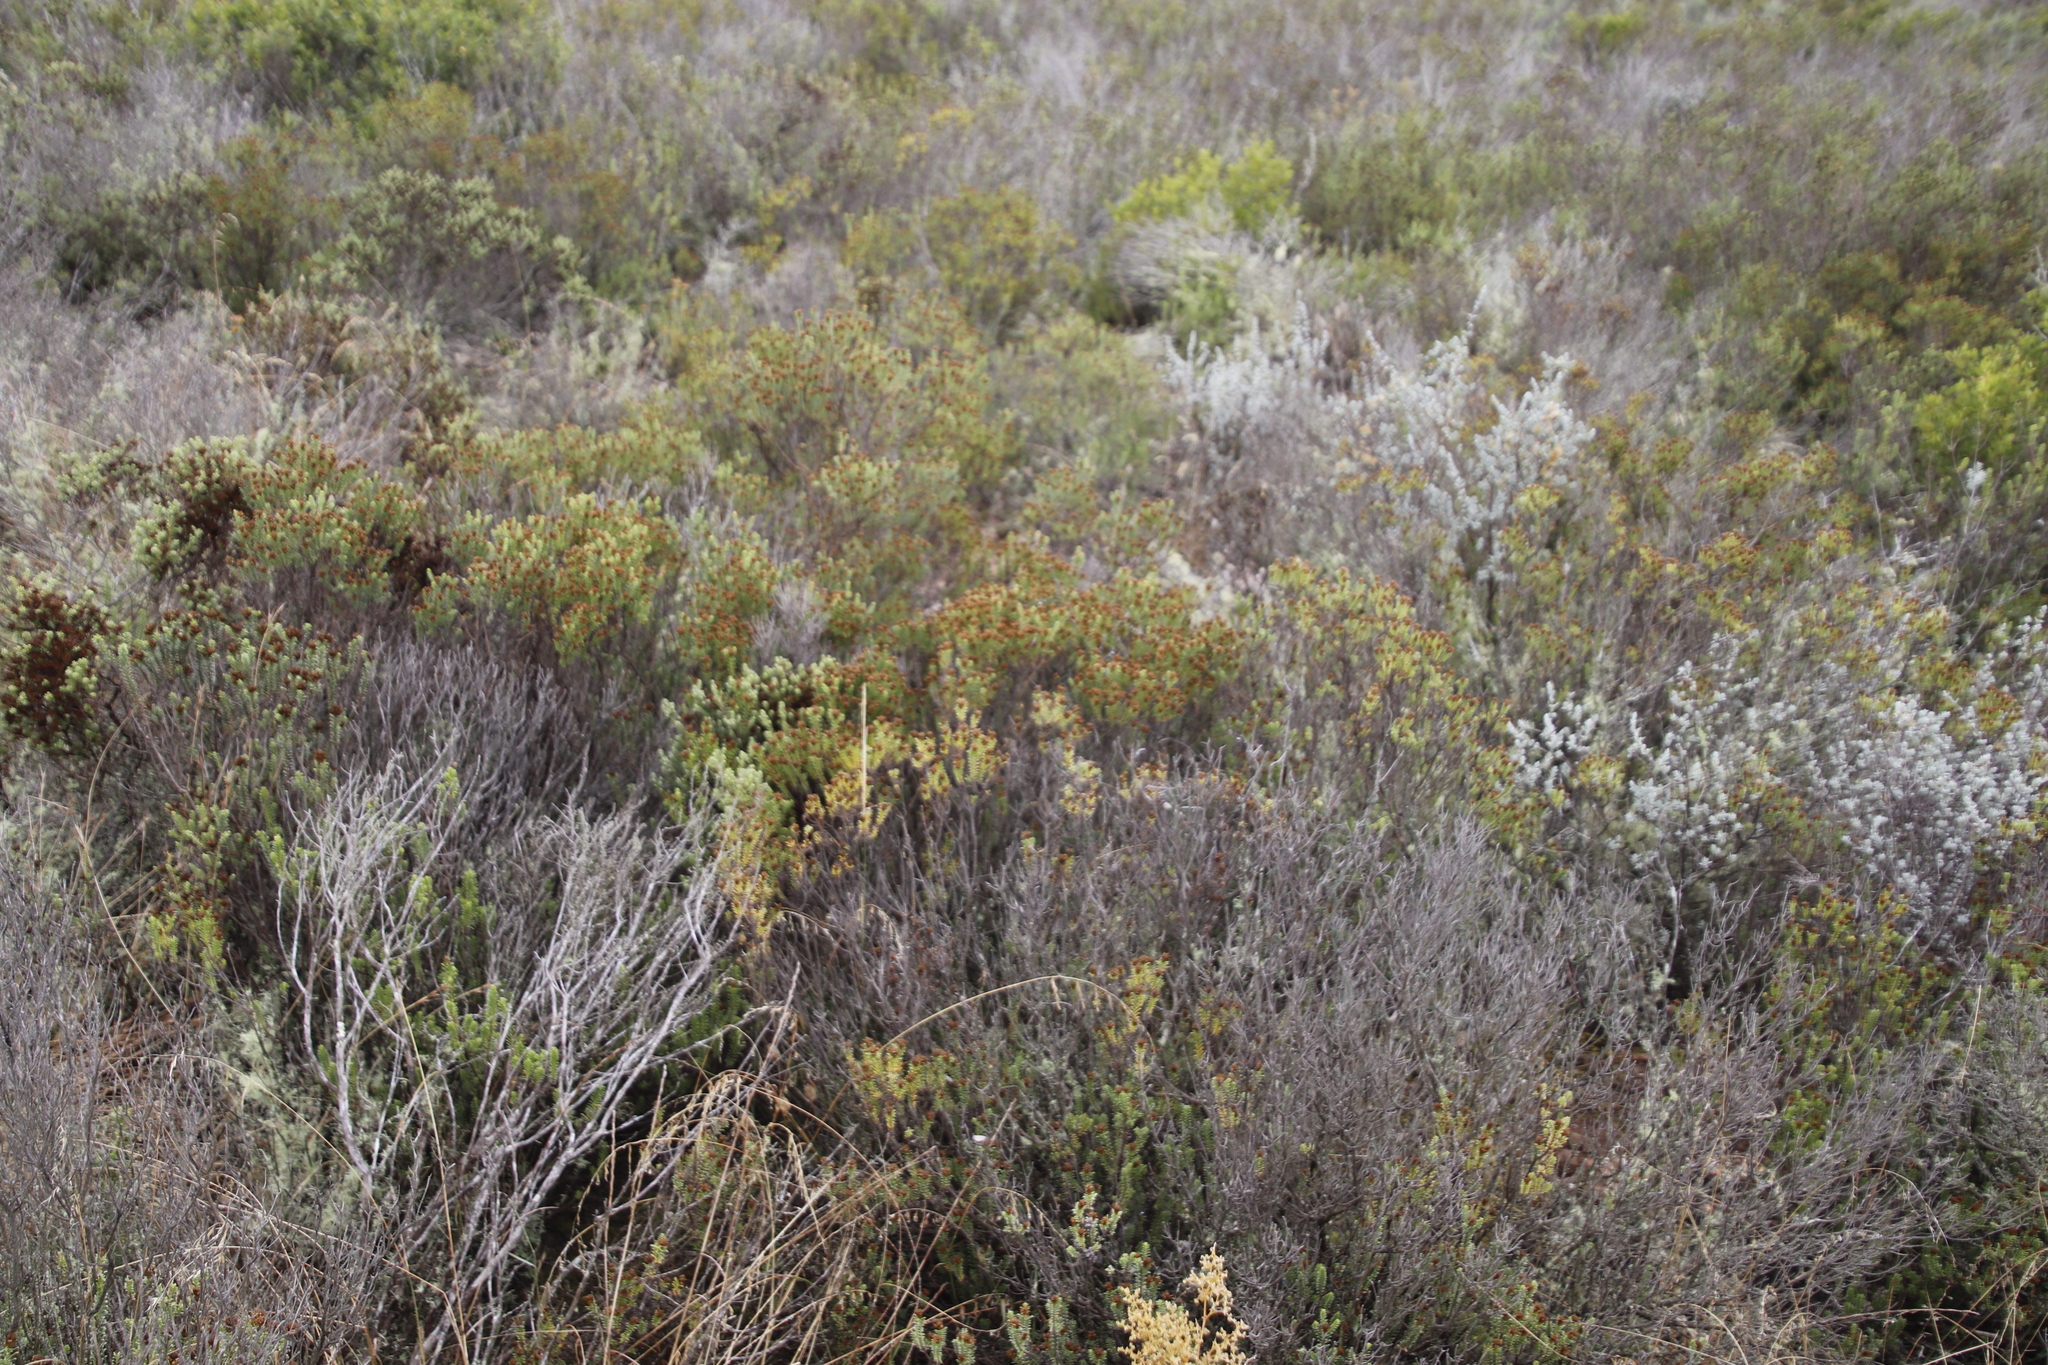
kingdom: Plantae
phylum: Tracheophyta
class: Magnoliopsida
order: Asterales
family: Asteraceae
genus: Oedera
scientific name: Oedera uniflora
